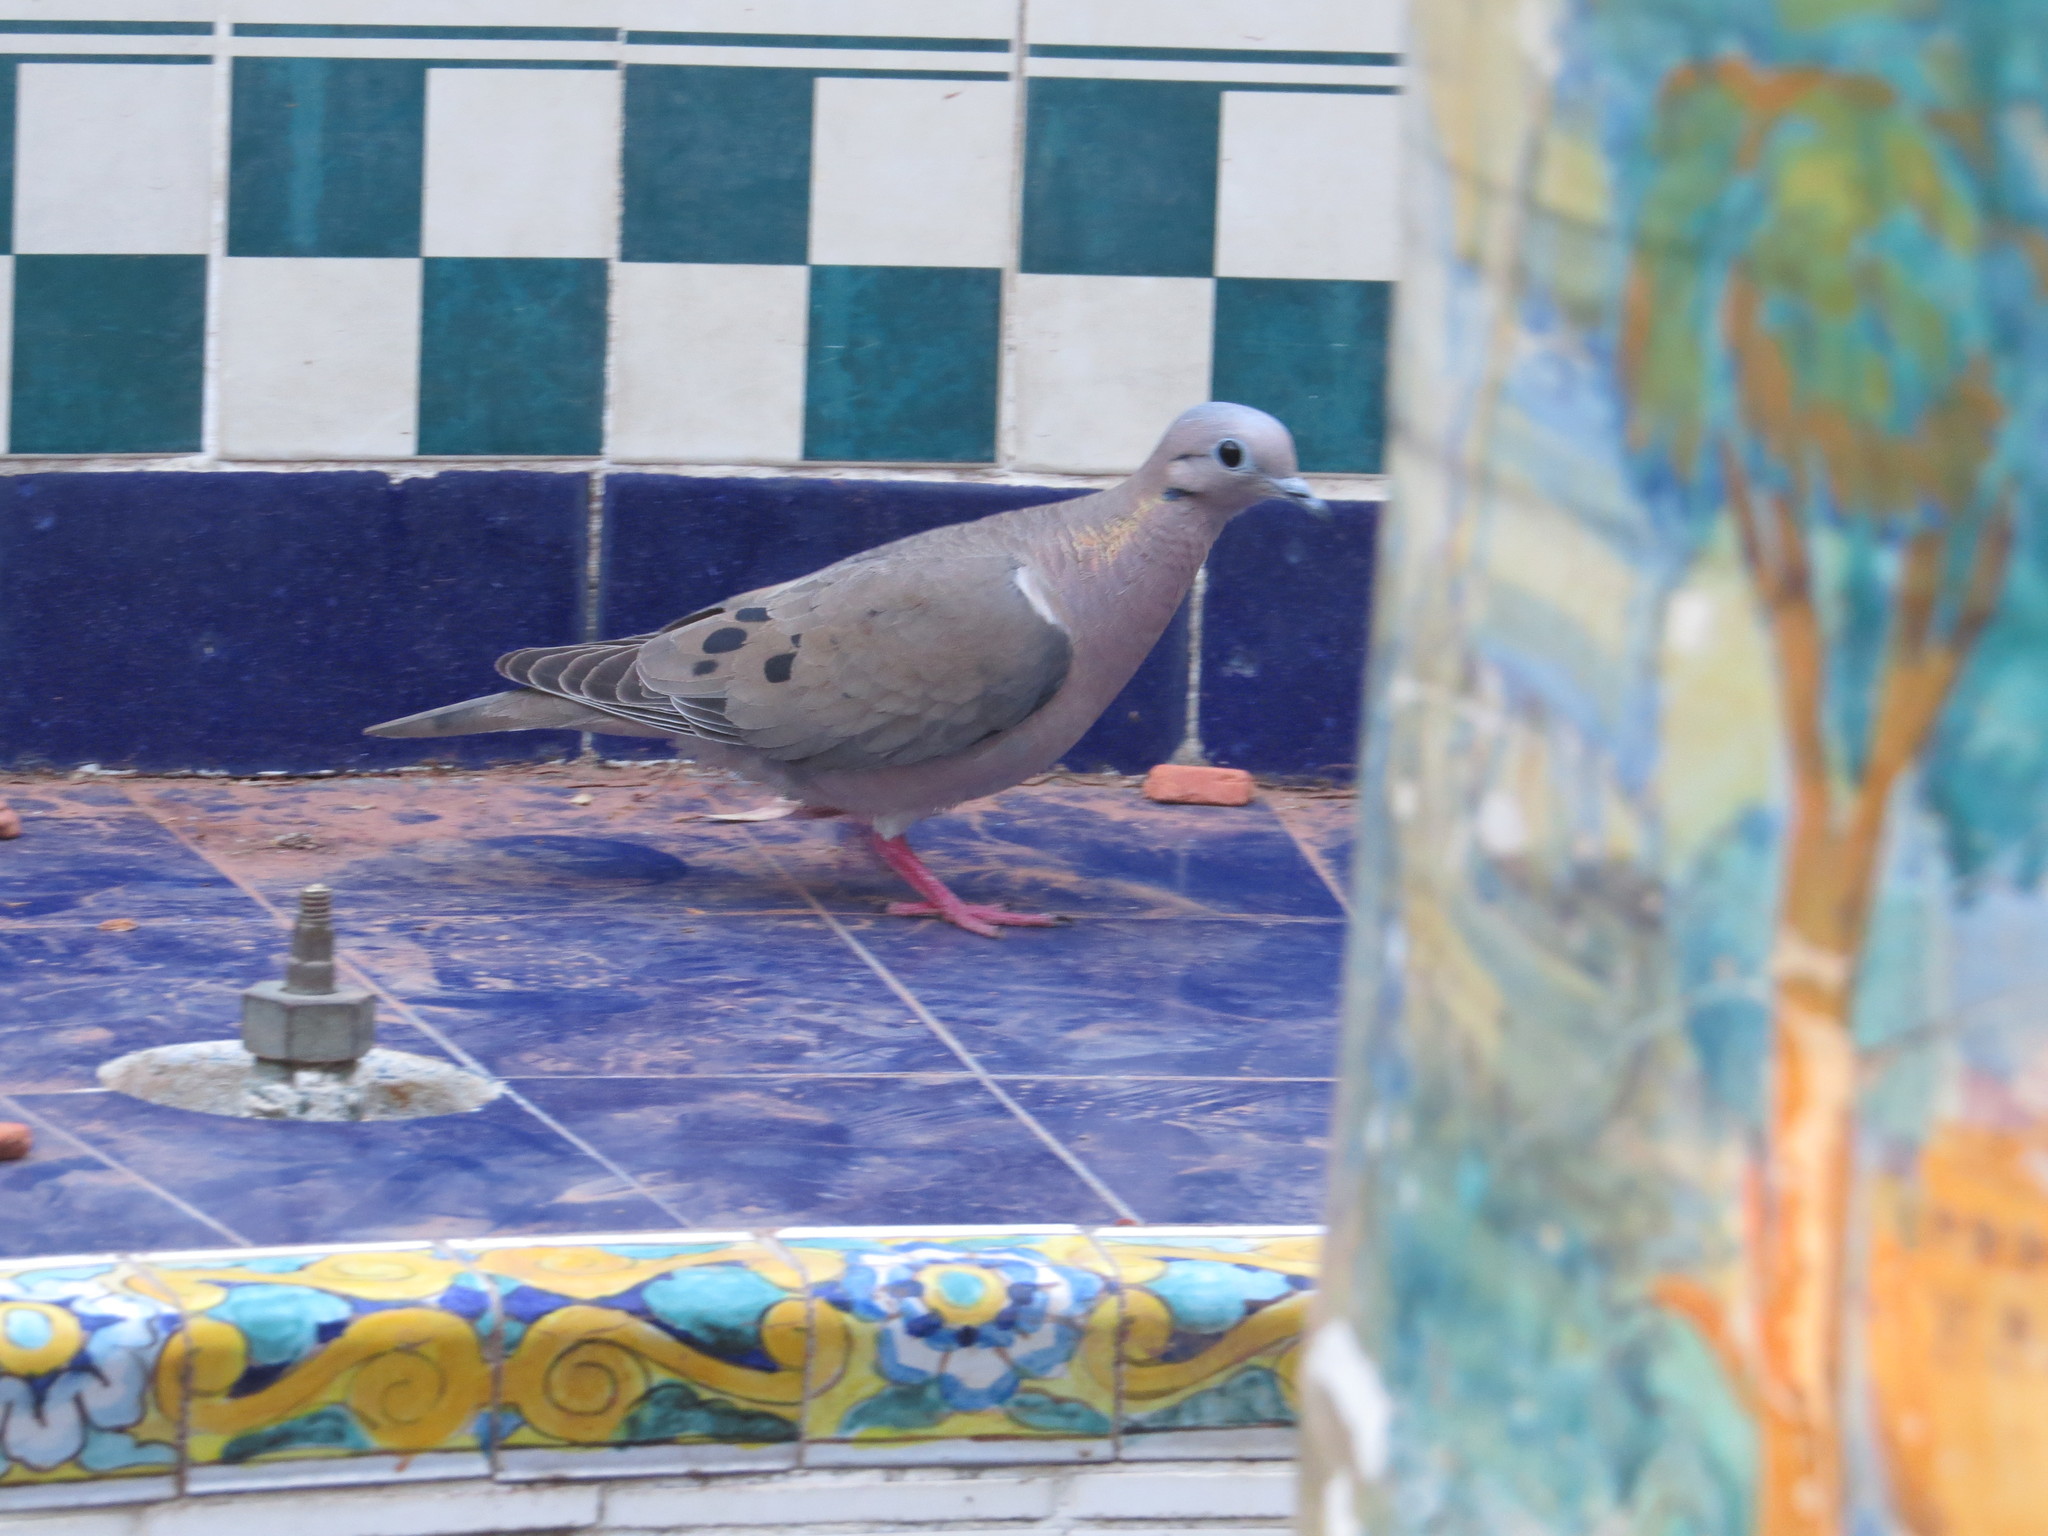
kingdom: Animalia
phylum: Chordata
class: Aves
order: Columbiformes
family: Columbidae
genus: Zenaida
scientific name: Zenaida auriculata
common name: Eared dove
